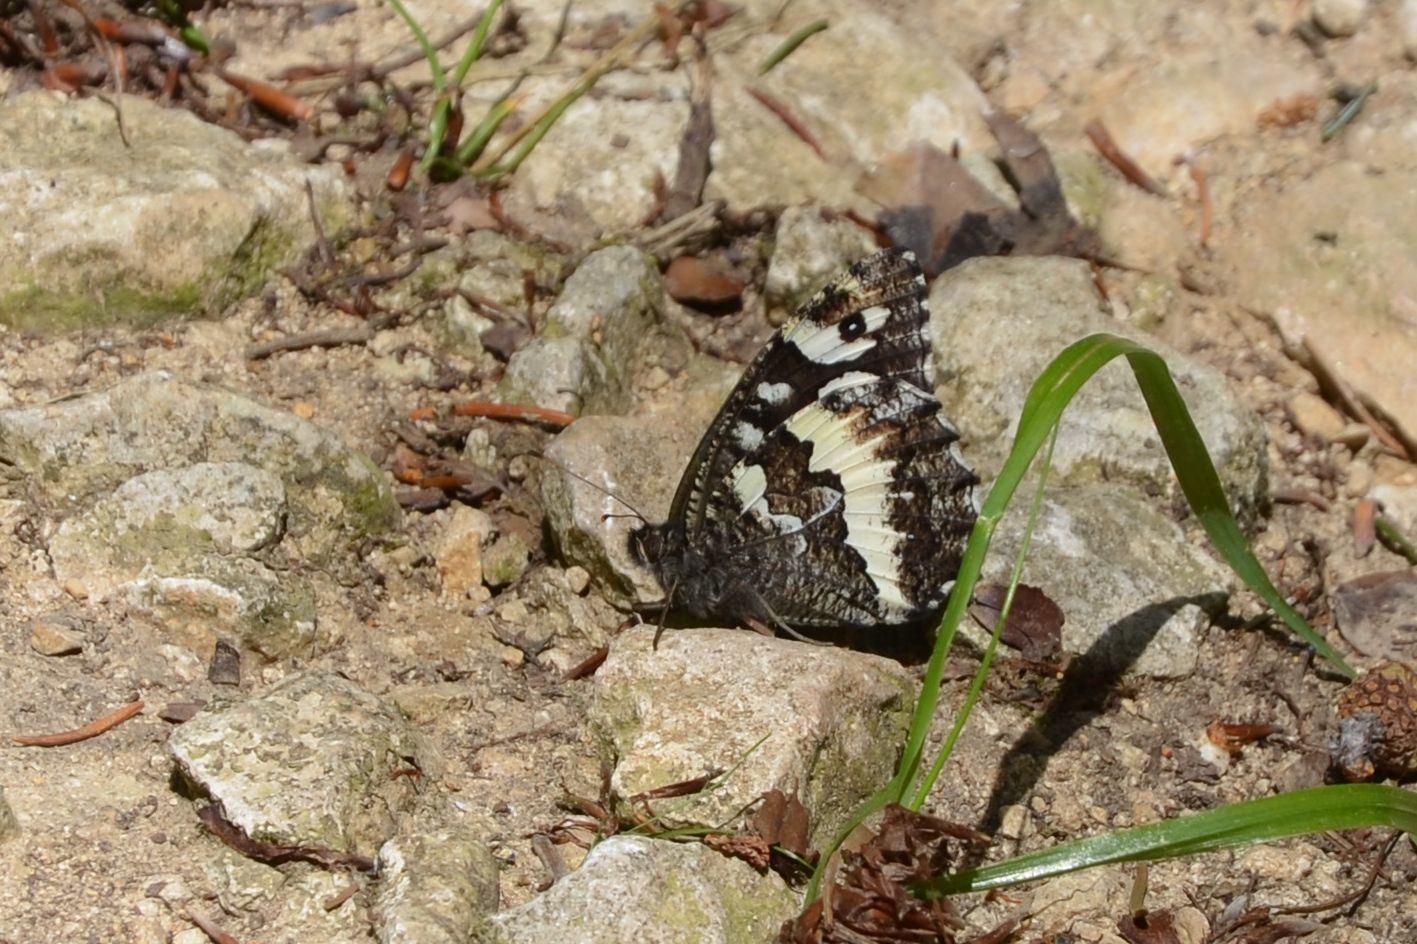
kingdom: Animalia
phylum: Arthropoda
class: Insecta
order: Lepidoptera
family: Lycaenidae
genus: Loweia
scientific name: Loweia tityrus
